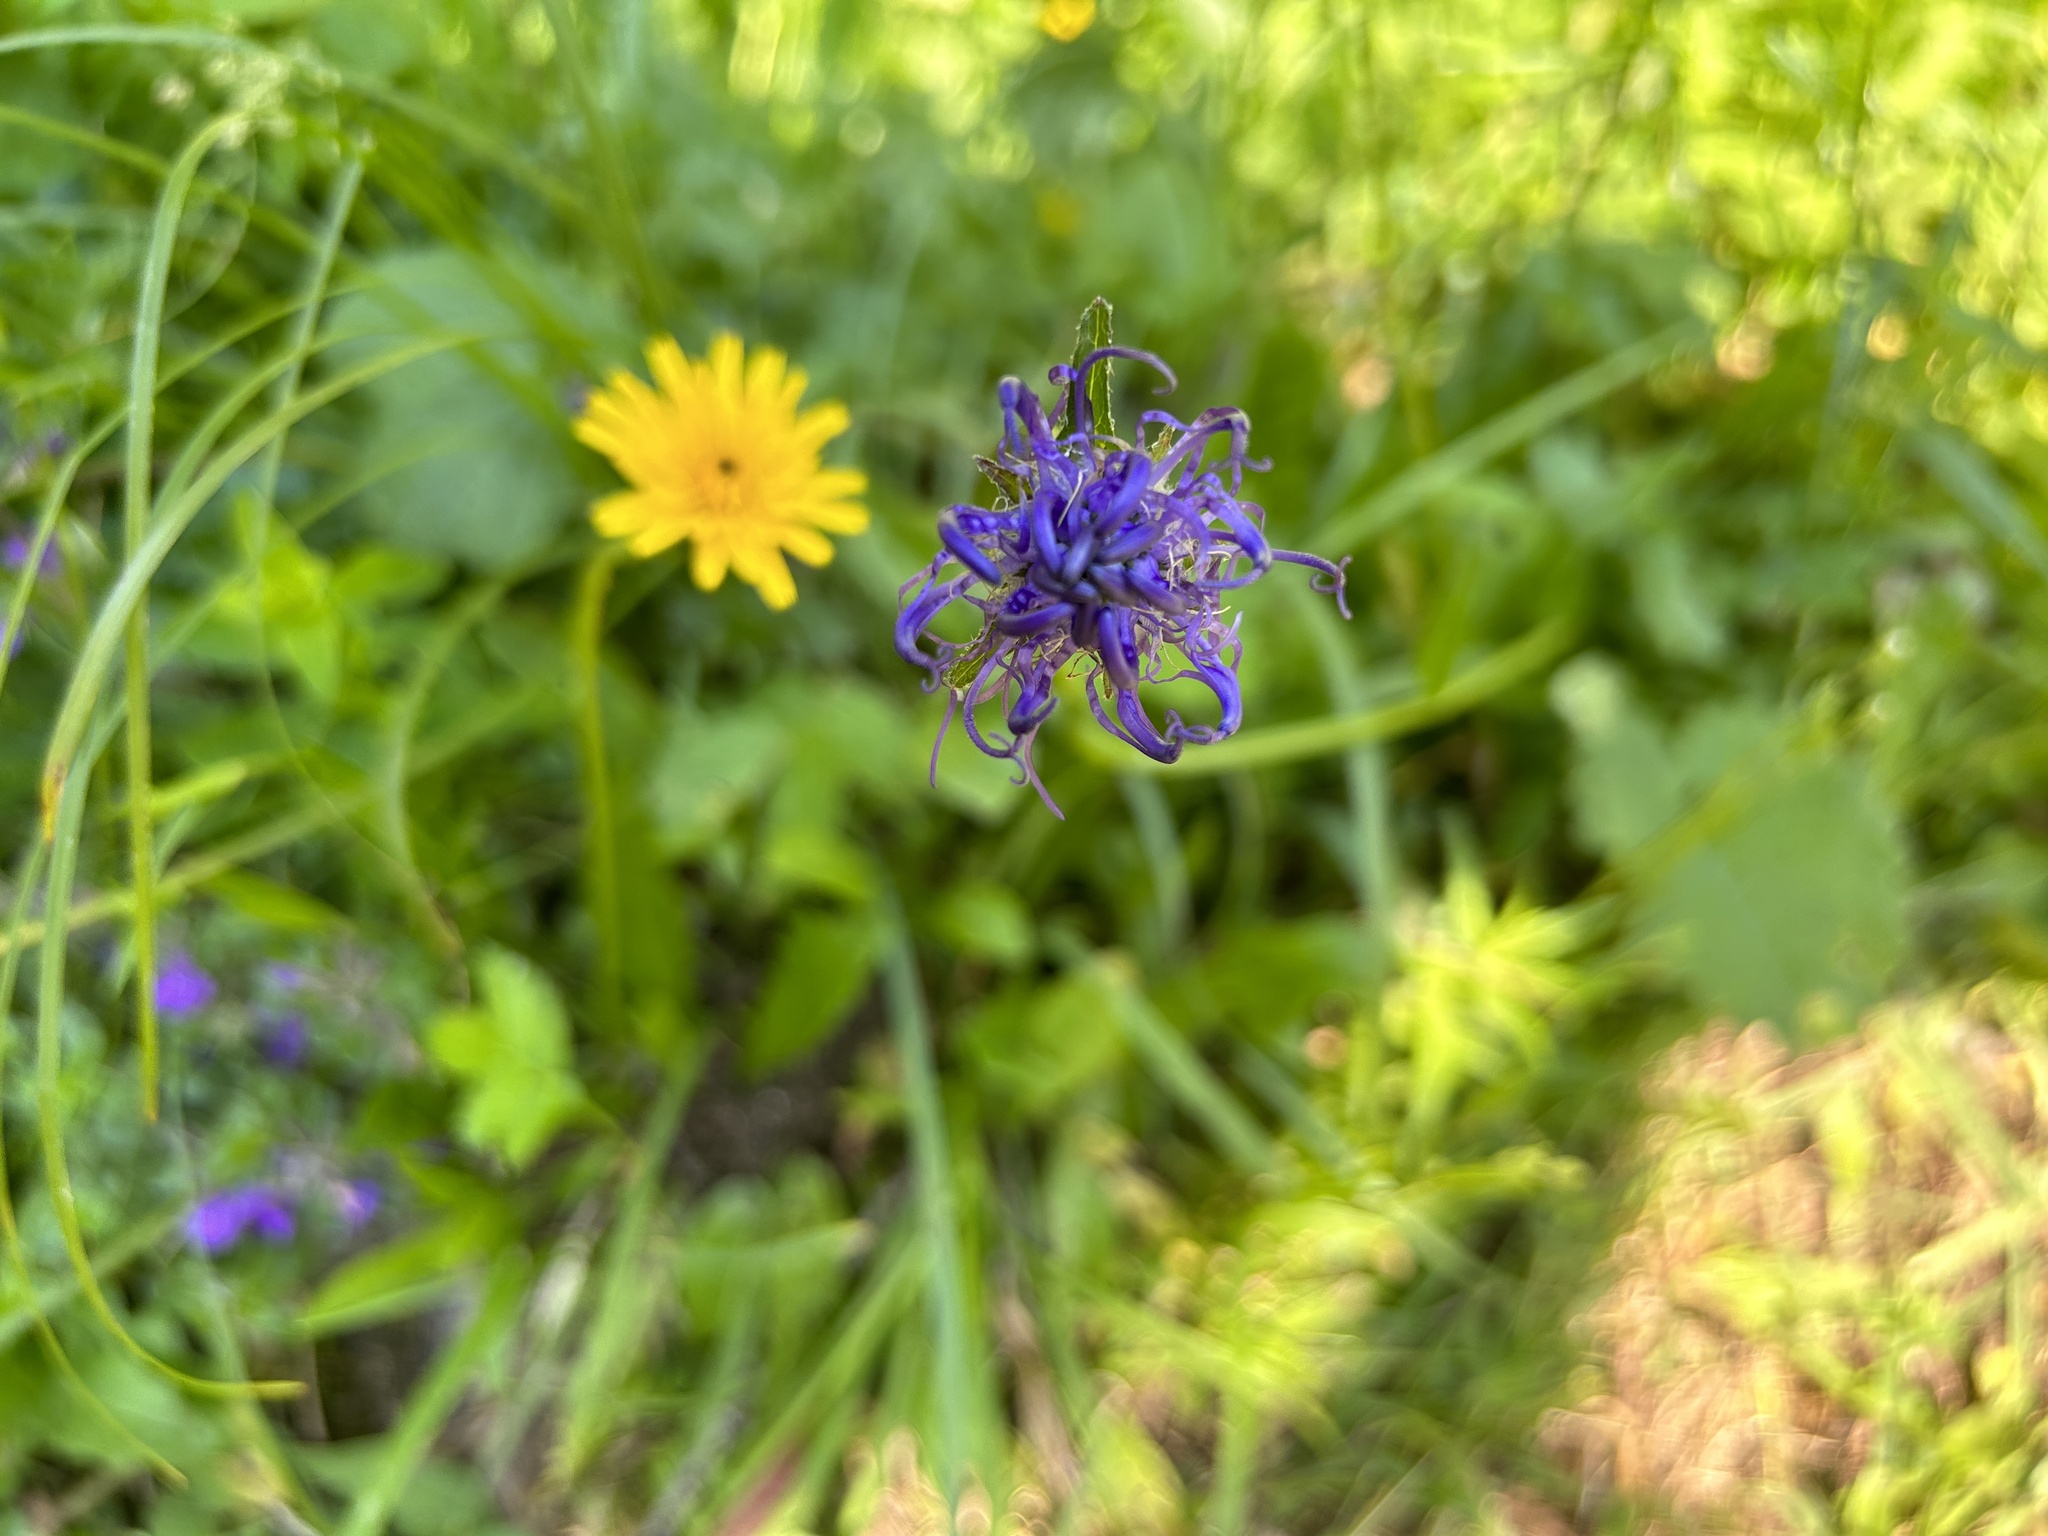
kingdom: Plantae
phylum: Tracheophyta
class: Magnoliopsida
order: Asterales
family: Campanulaceae
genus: Phyteuma
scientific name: Phyteuma orbiculare
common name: Round-headed rampion
